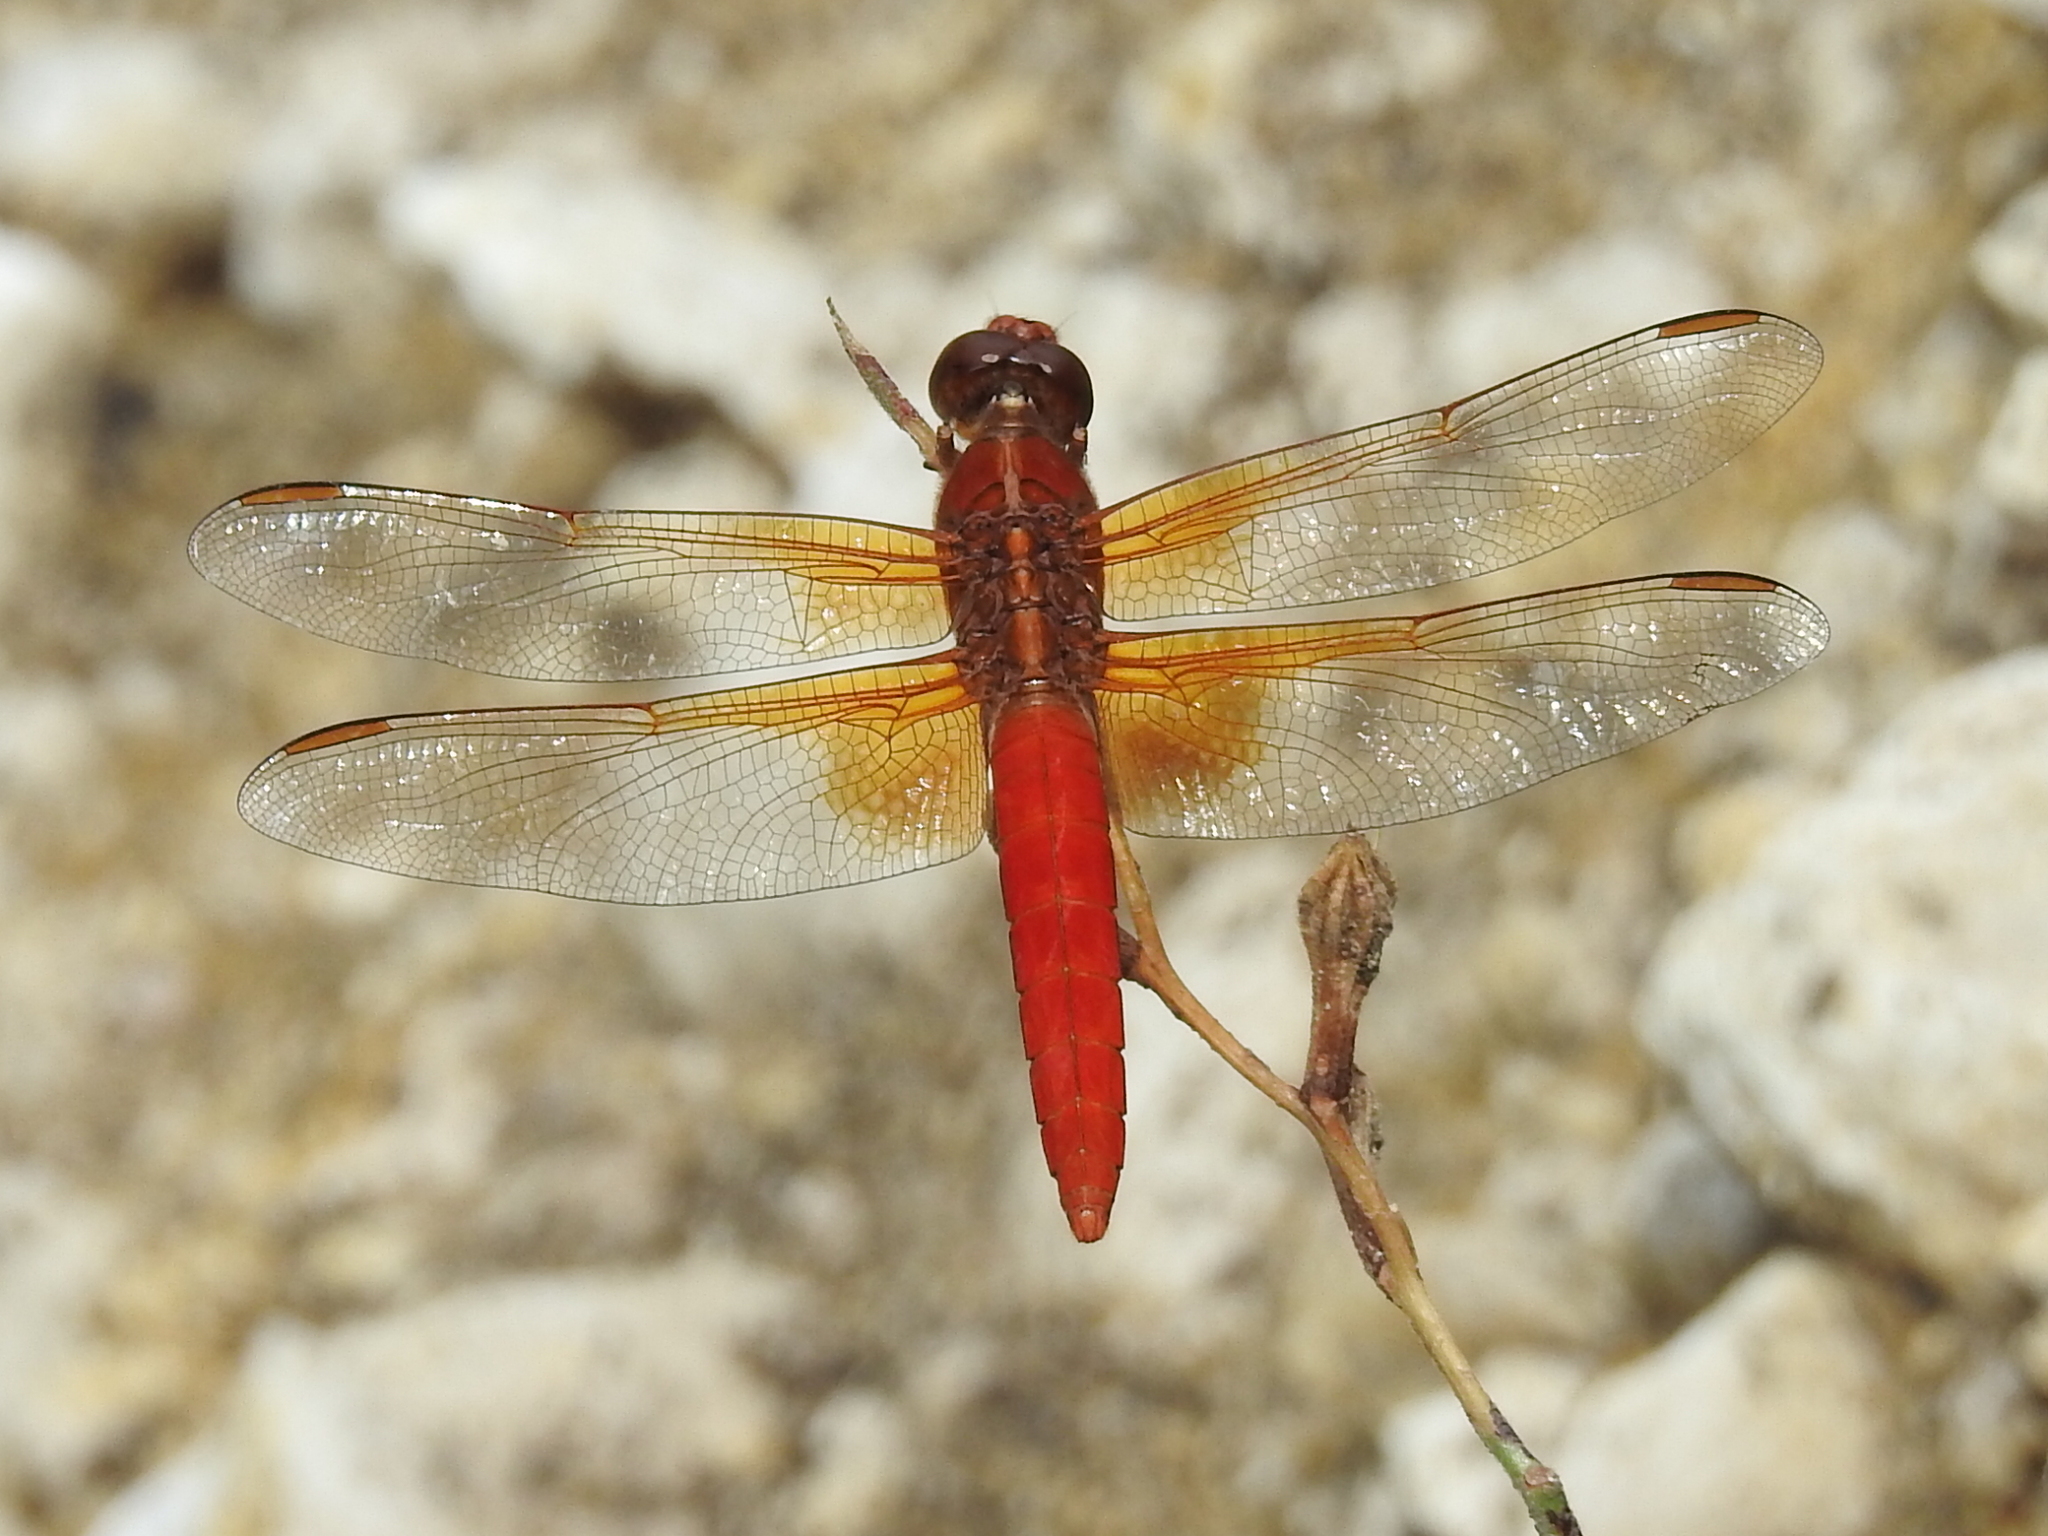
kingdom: Animalia
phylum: Arthropoda
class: Insecta
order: Odonata
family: Libellulidae
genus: Libellula
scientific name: Libellula croceipennis
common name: Neon skimmer
